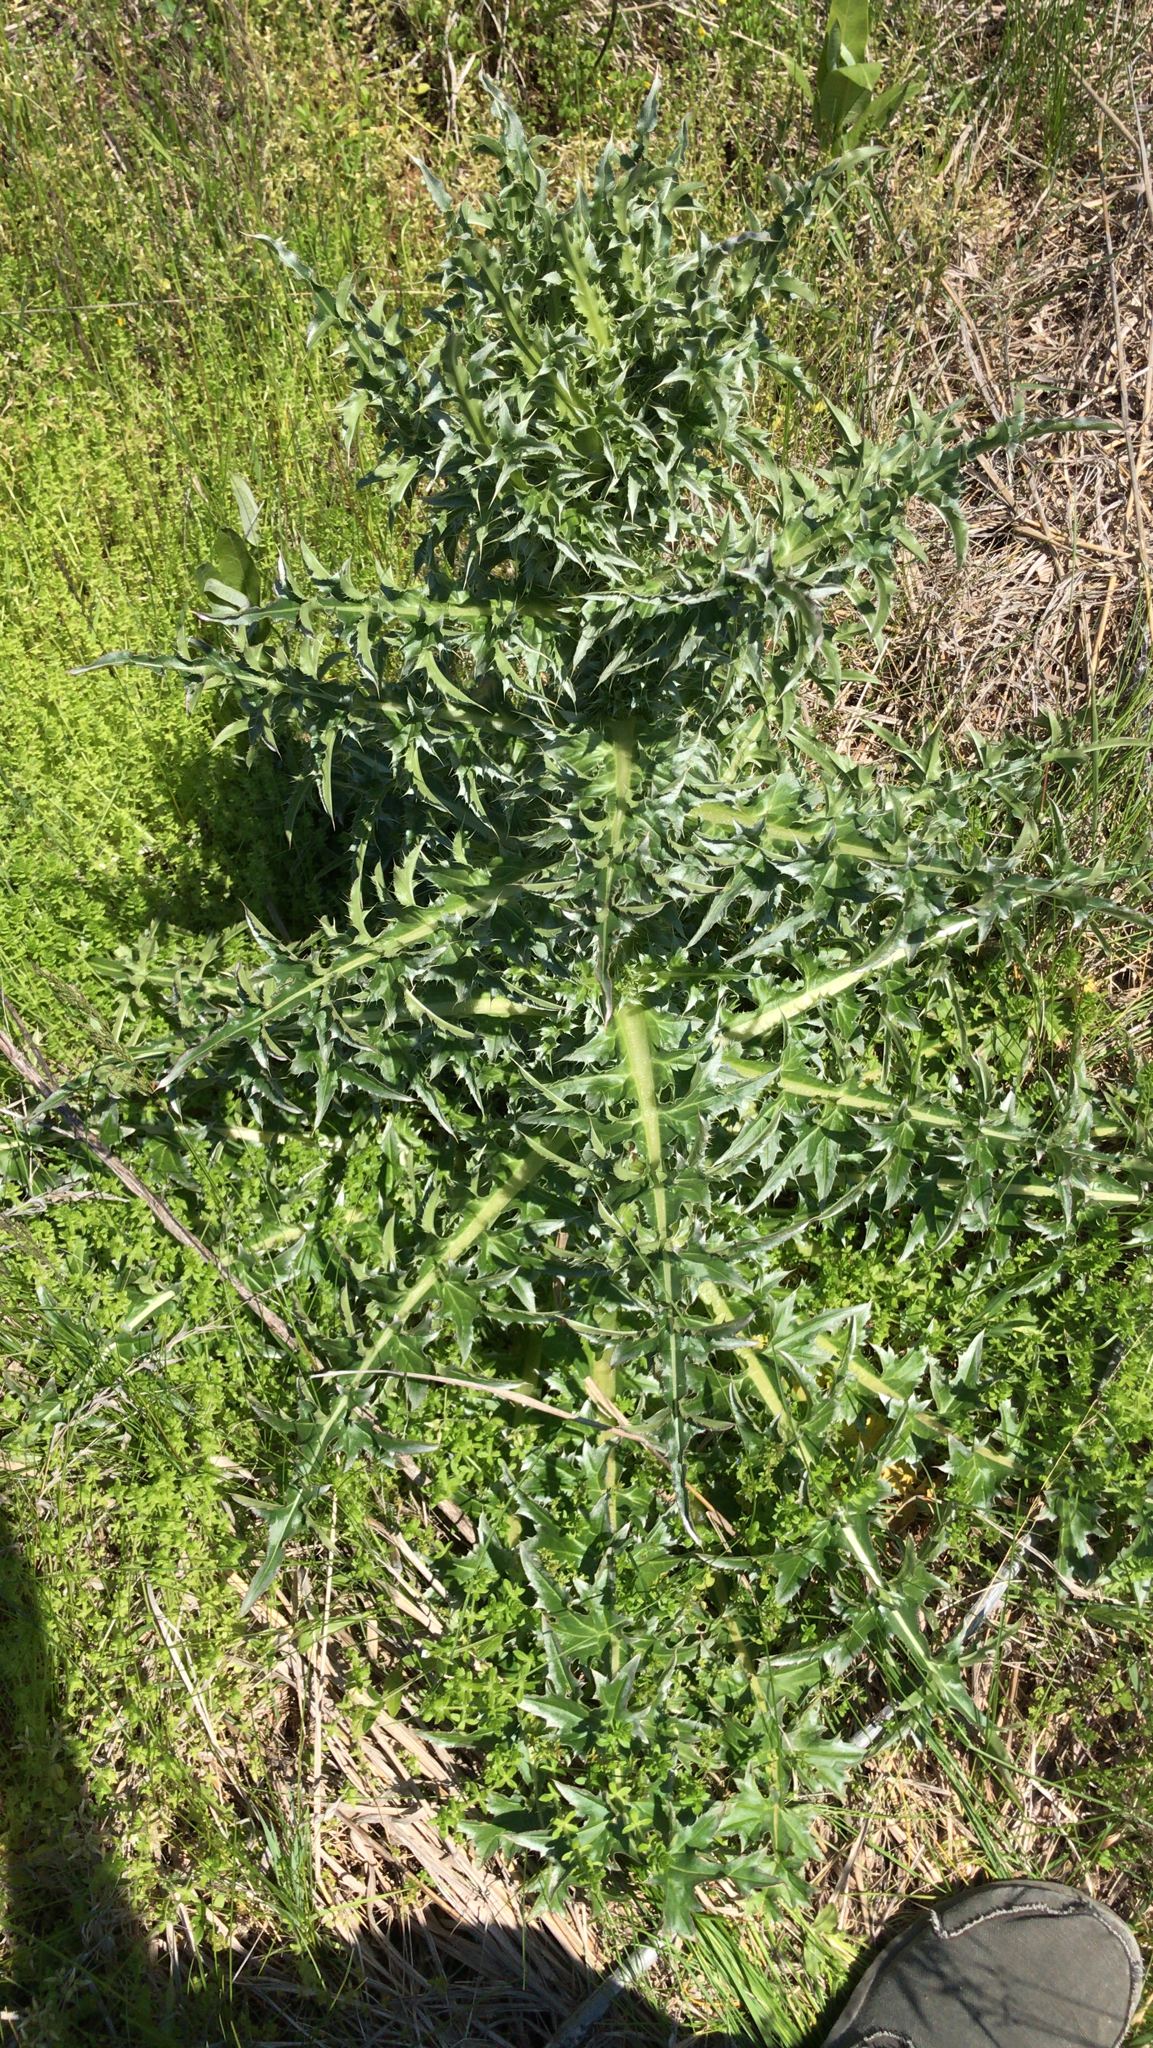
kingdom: Plantae
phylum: Tracheophyta
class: Magnoliopsida
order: Asterales
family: Asteraceae
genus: Carduus
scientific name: Carduus nutans
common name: Musk thistle
